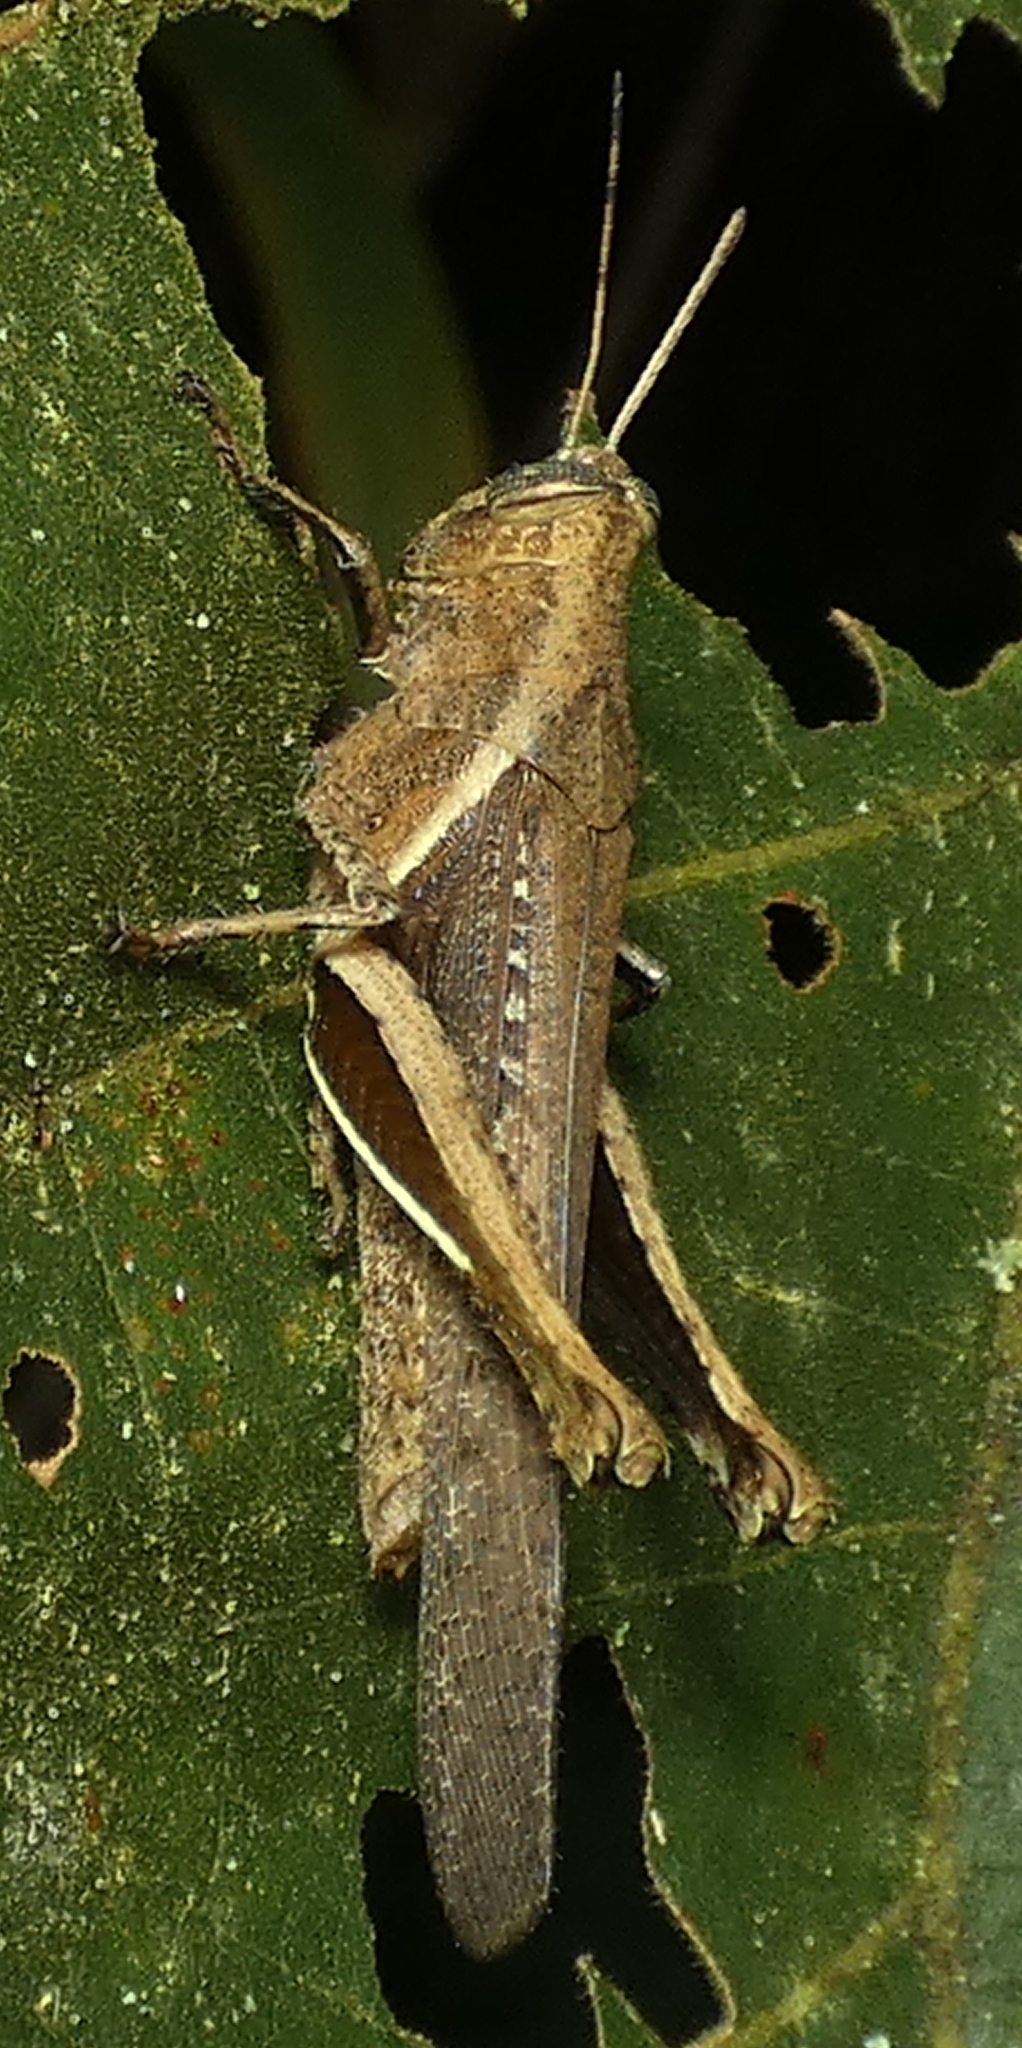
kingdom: Animalia
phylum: Arthropoda
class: Insecta
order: Orthoptera
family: Acrididae
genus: Abracris
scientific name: Abracris flavolineata
